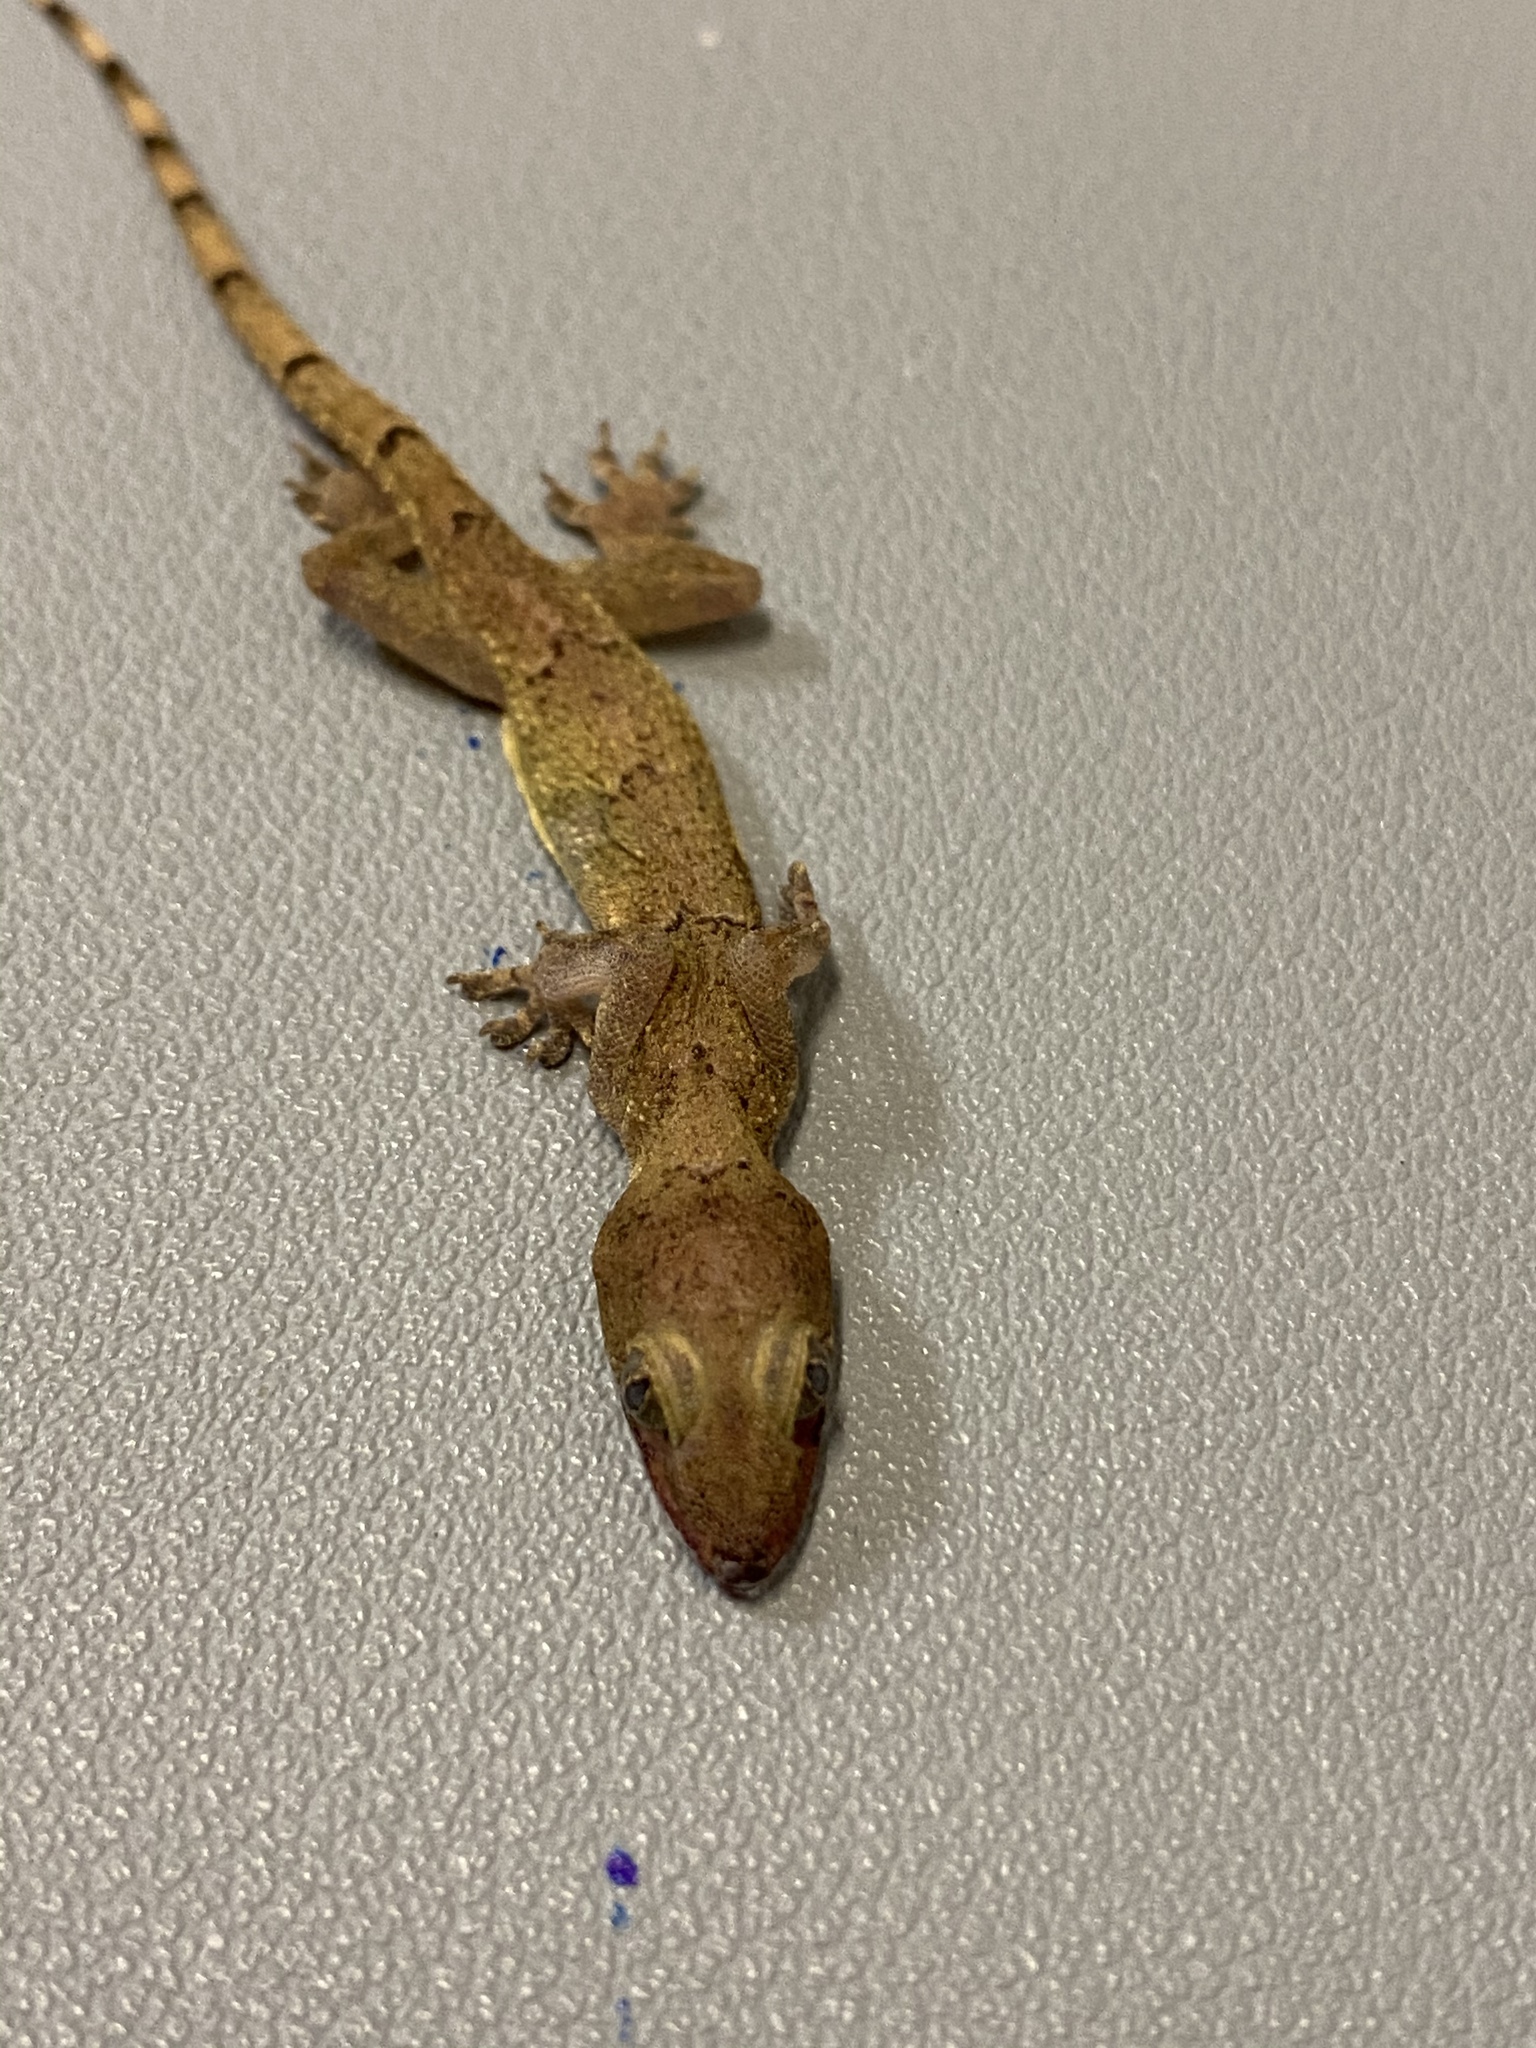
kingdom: Animalia
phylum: Chordata
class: Squamata
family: Gekkonidae
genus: Hemidactylus
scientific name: Hemidactylus mabouia
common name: House gecko
